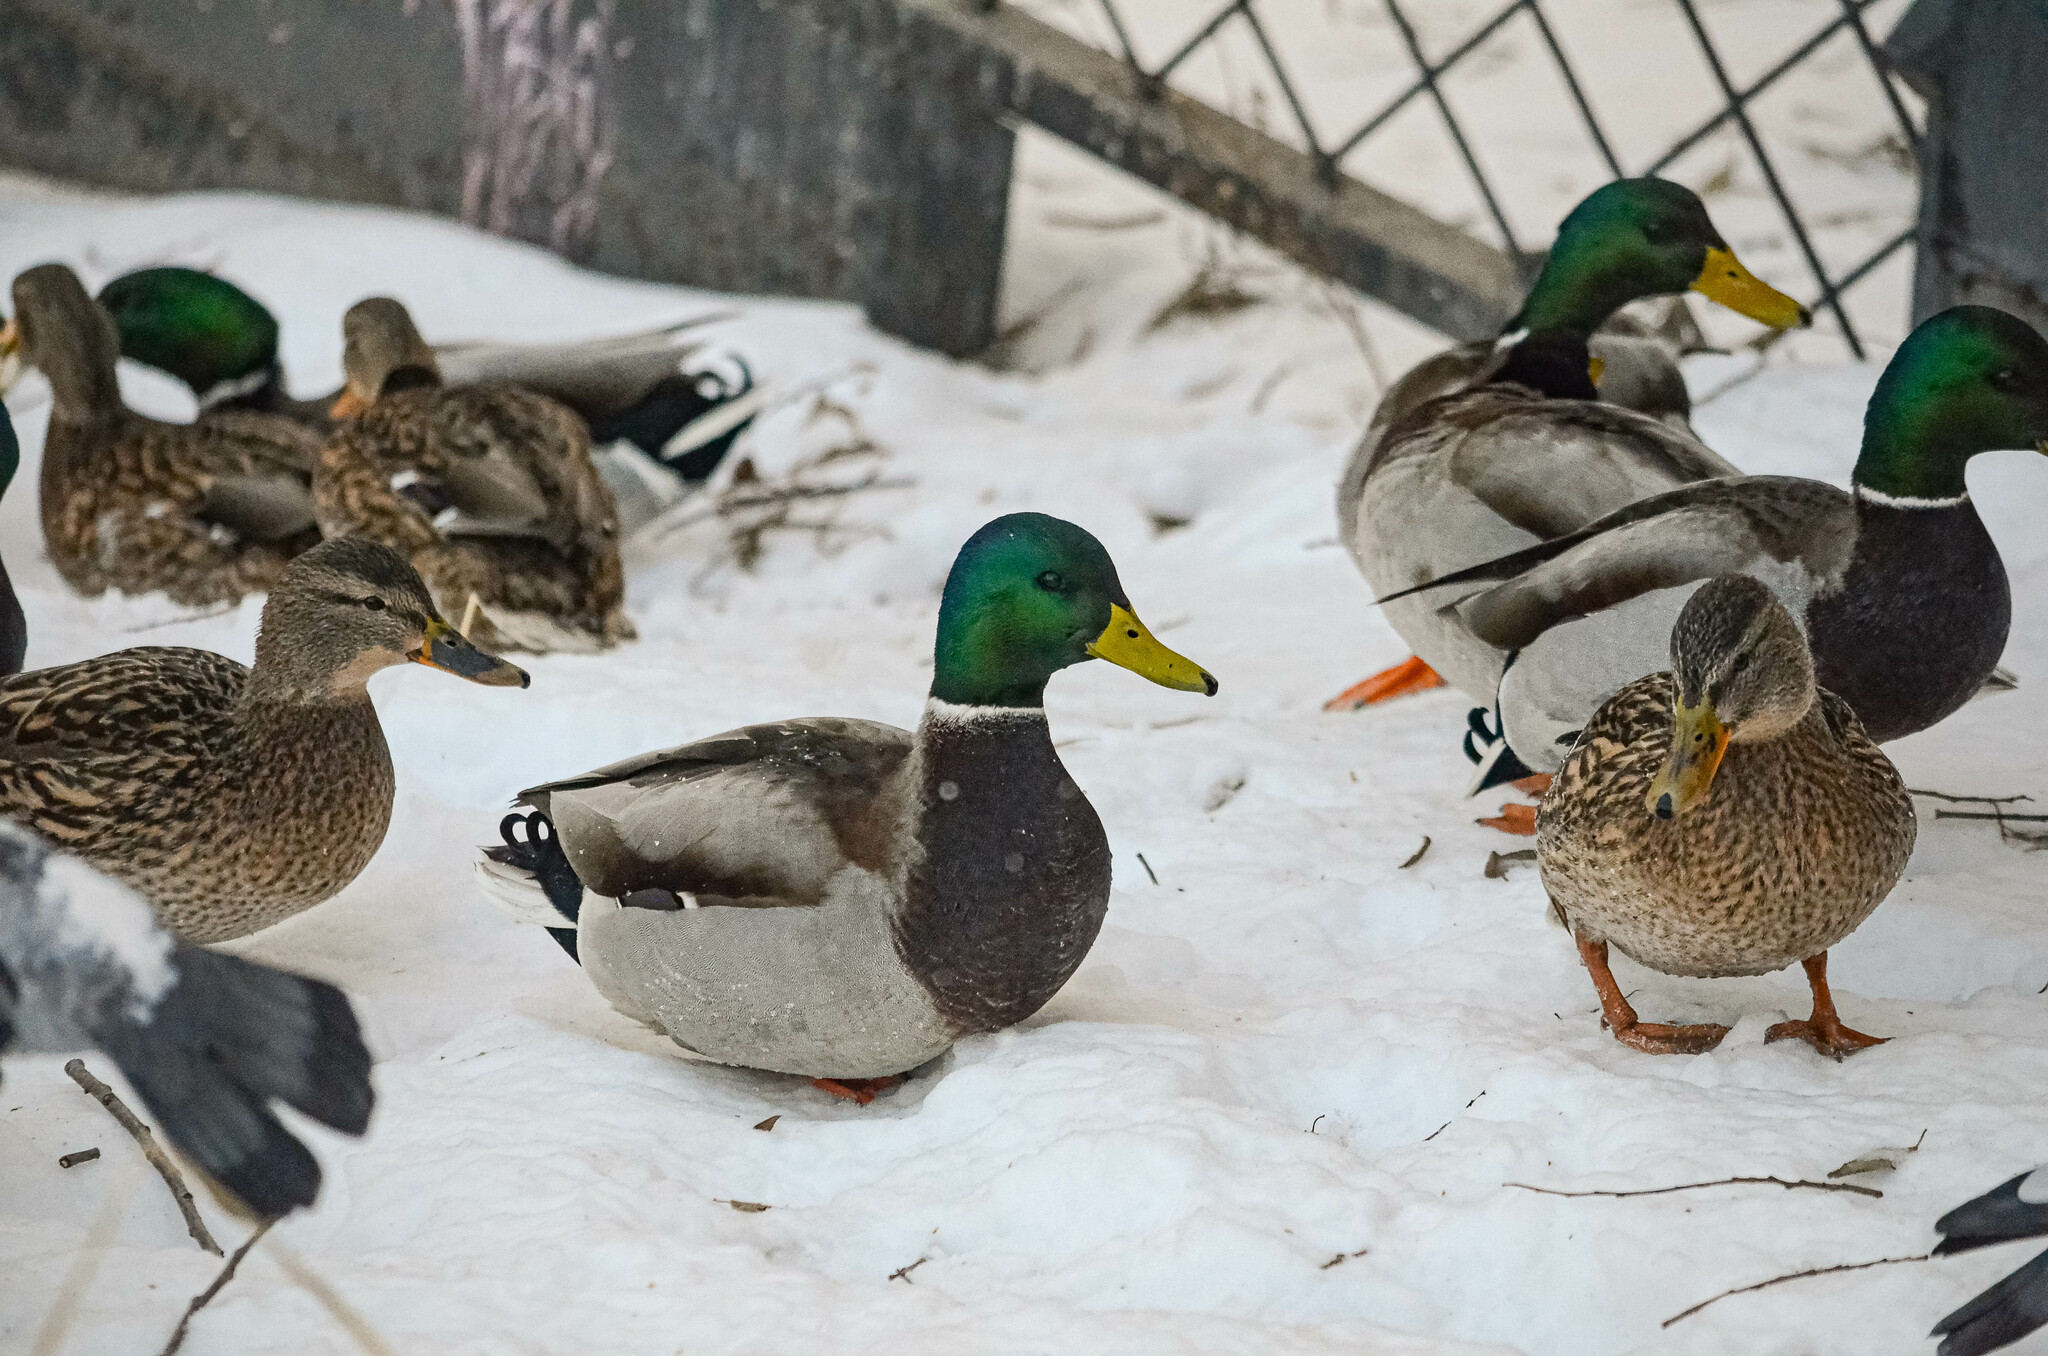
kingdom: Animalia
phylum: Chordata
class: Aves
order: Anseriformes
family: Anatidae
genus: Anas
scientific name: Anas platyrhynchos
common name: Mallard
